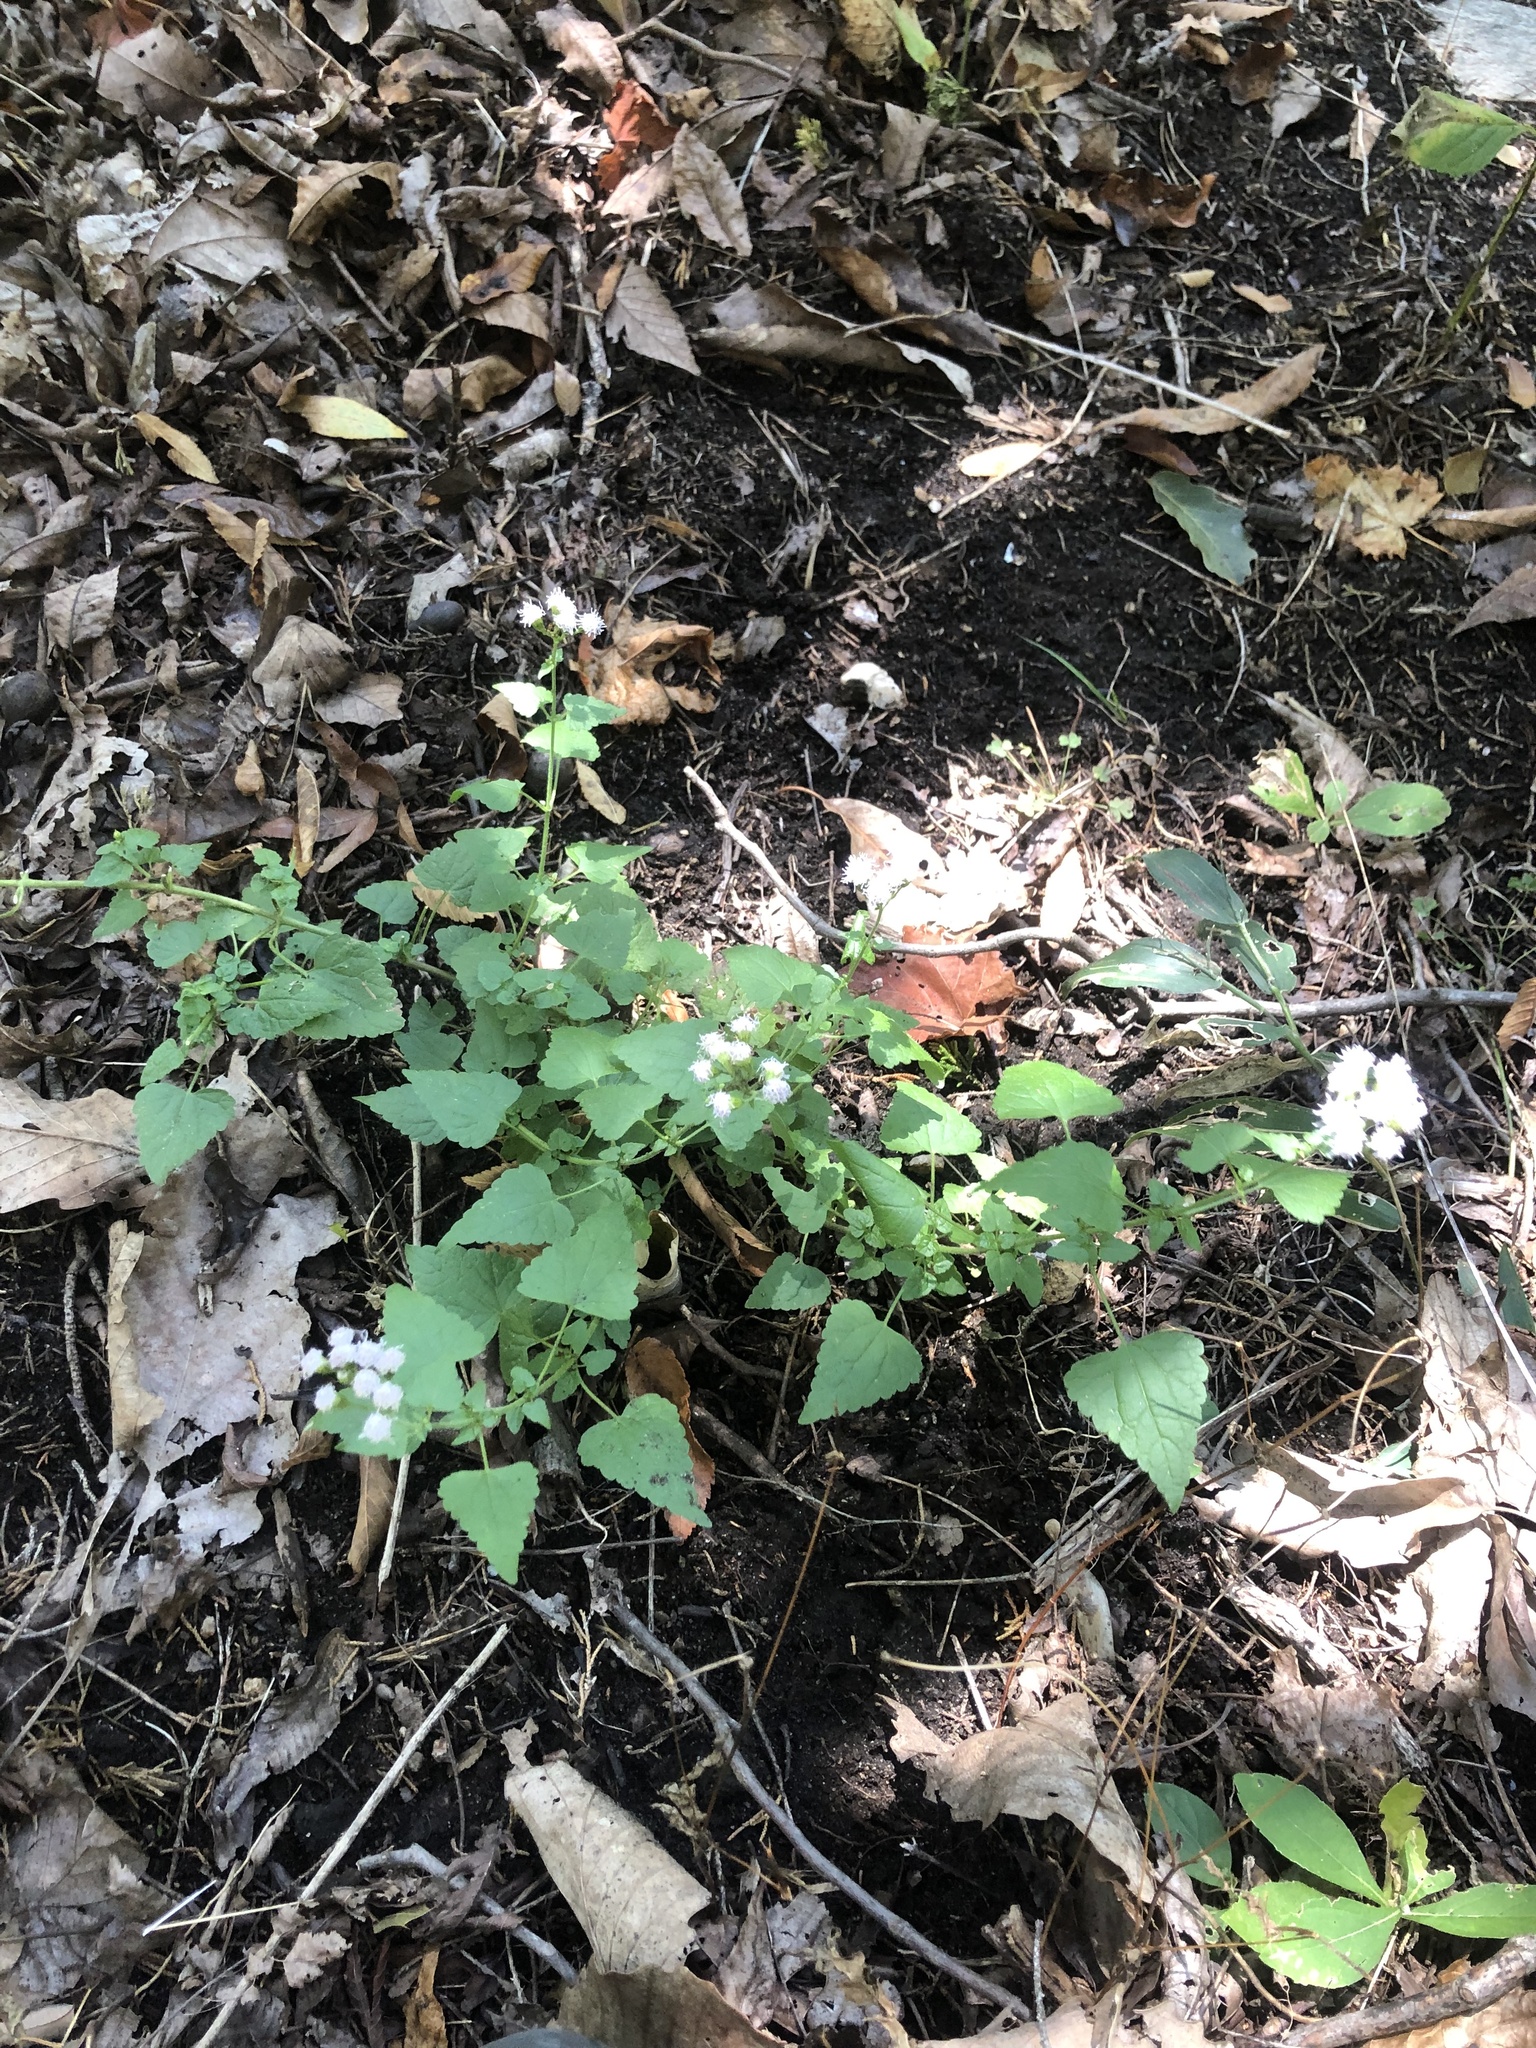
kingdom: Plantae
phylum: Tracheophyta
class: Magnoliopsida
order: Asterales
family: Asteraceae
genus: Fleischmannia
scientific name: Fleischmannia incarnata
